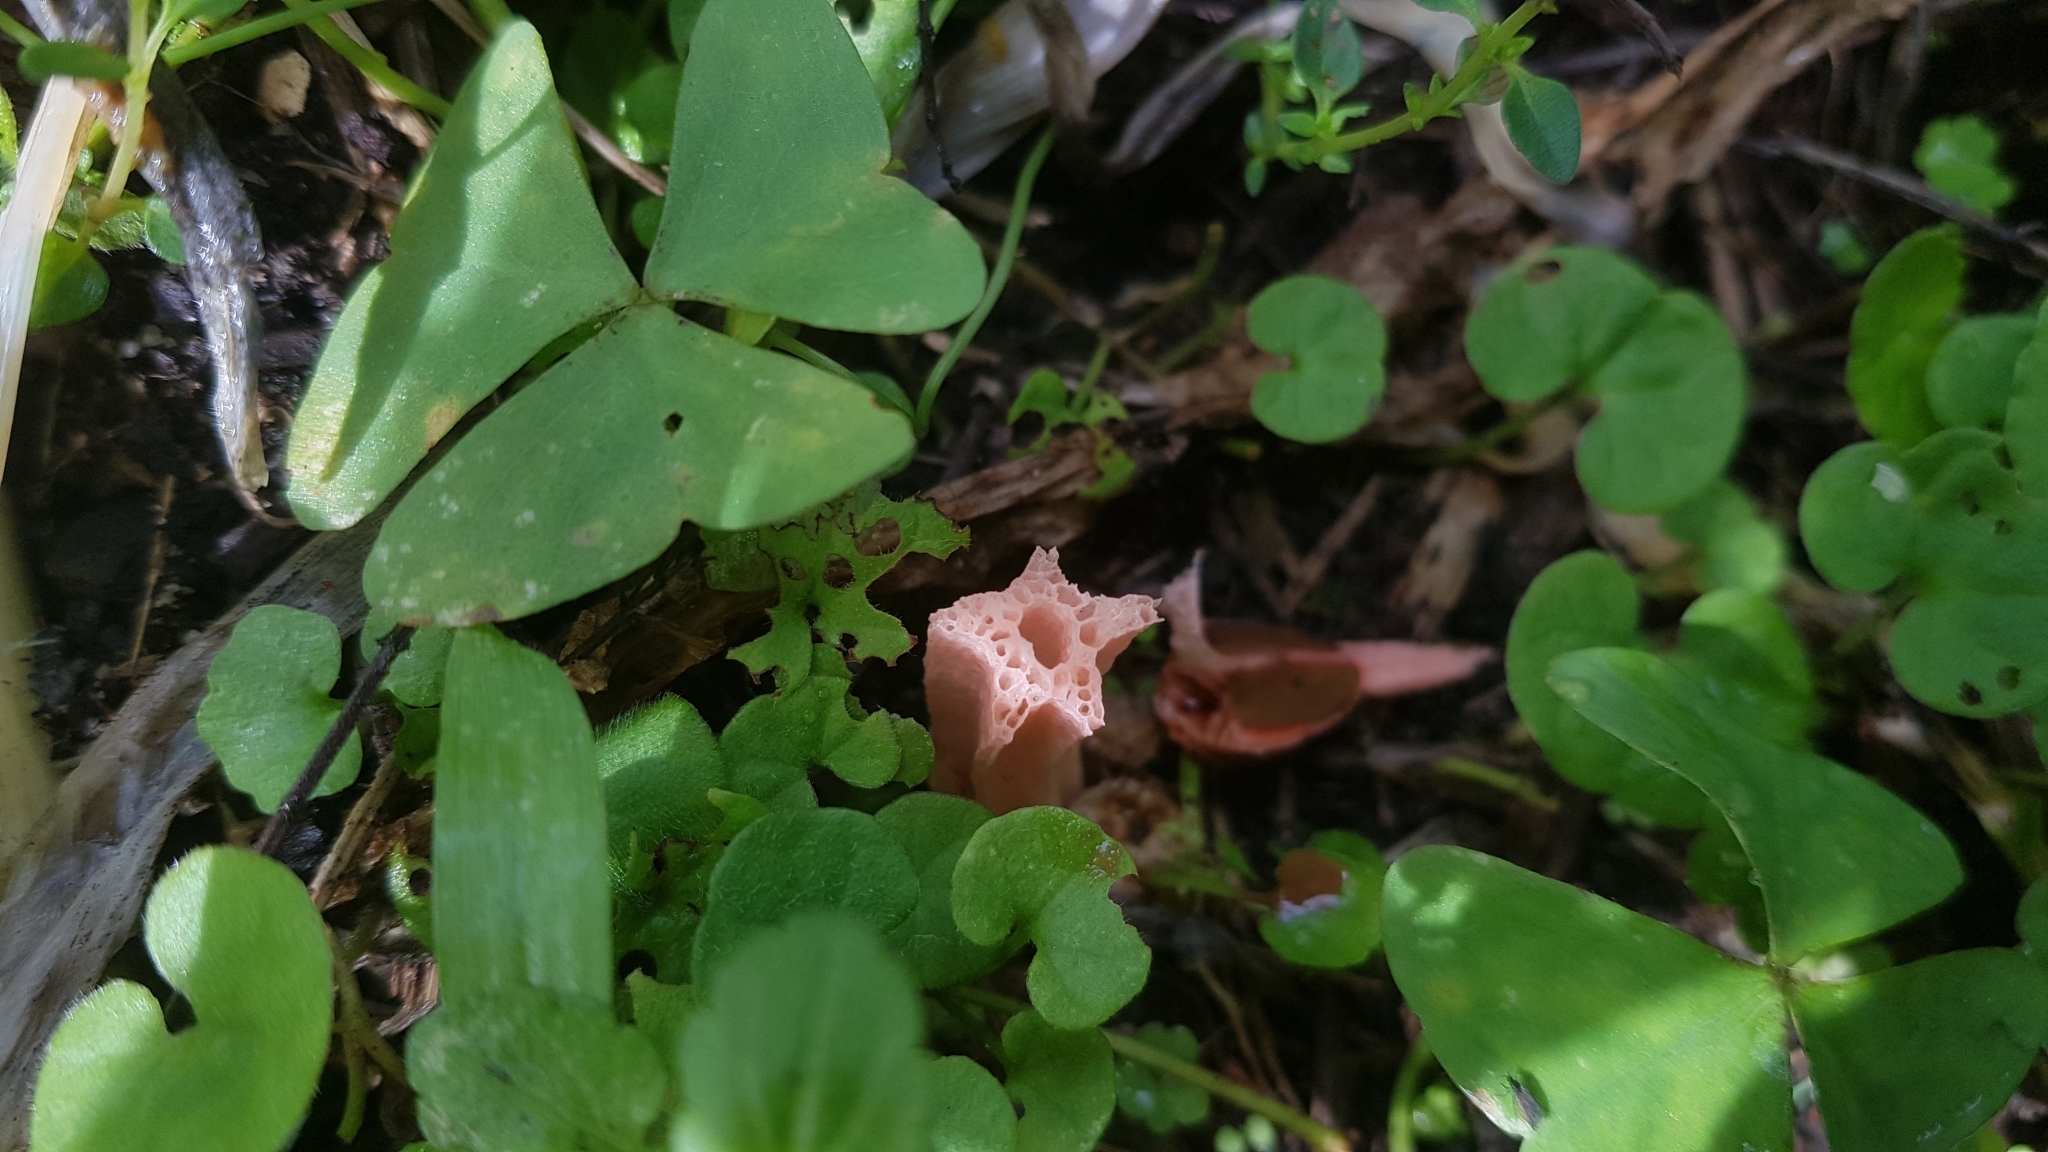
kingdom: Fungi
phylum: Basidiomycota
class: Agaricomycetes
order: Phallales
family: Phallaceae
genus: Lysurus
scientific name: Lysurus mokusin
